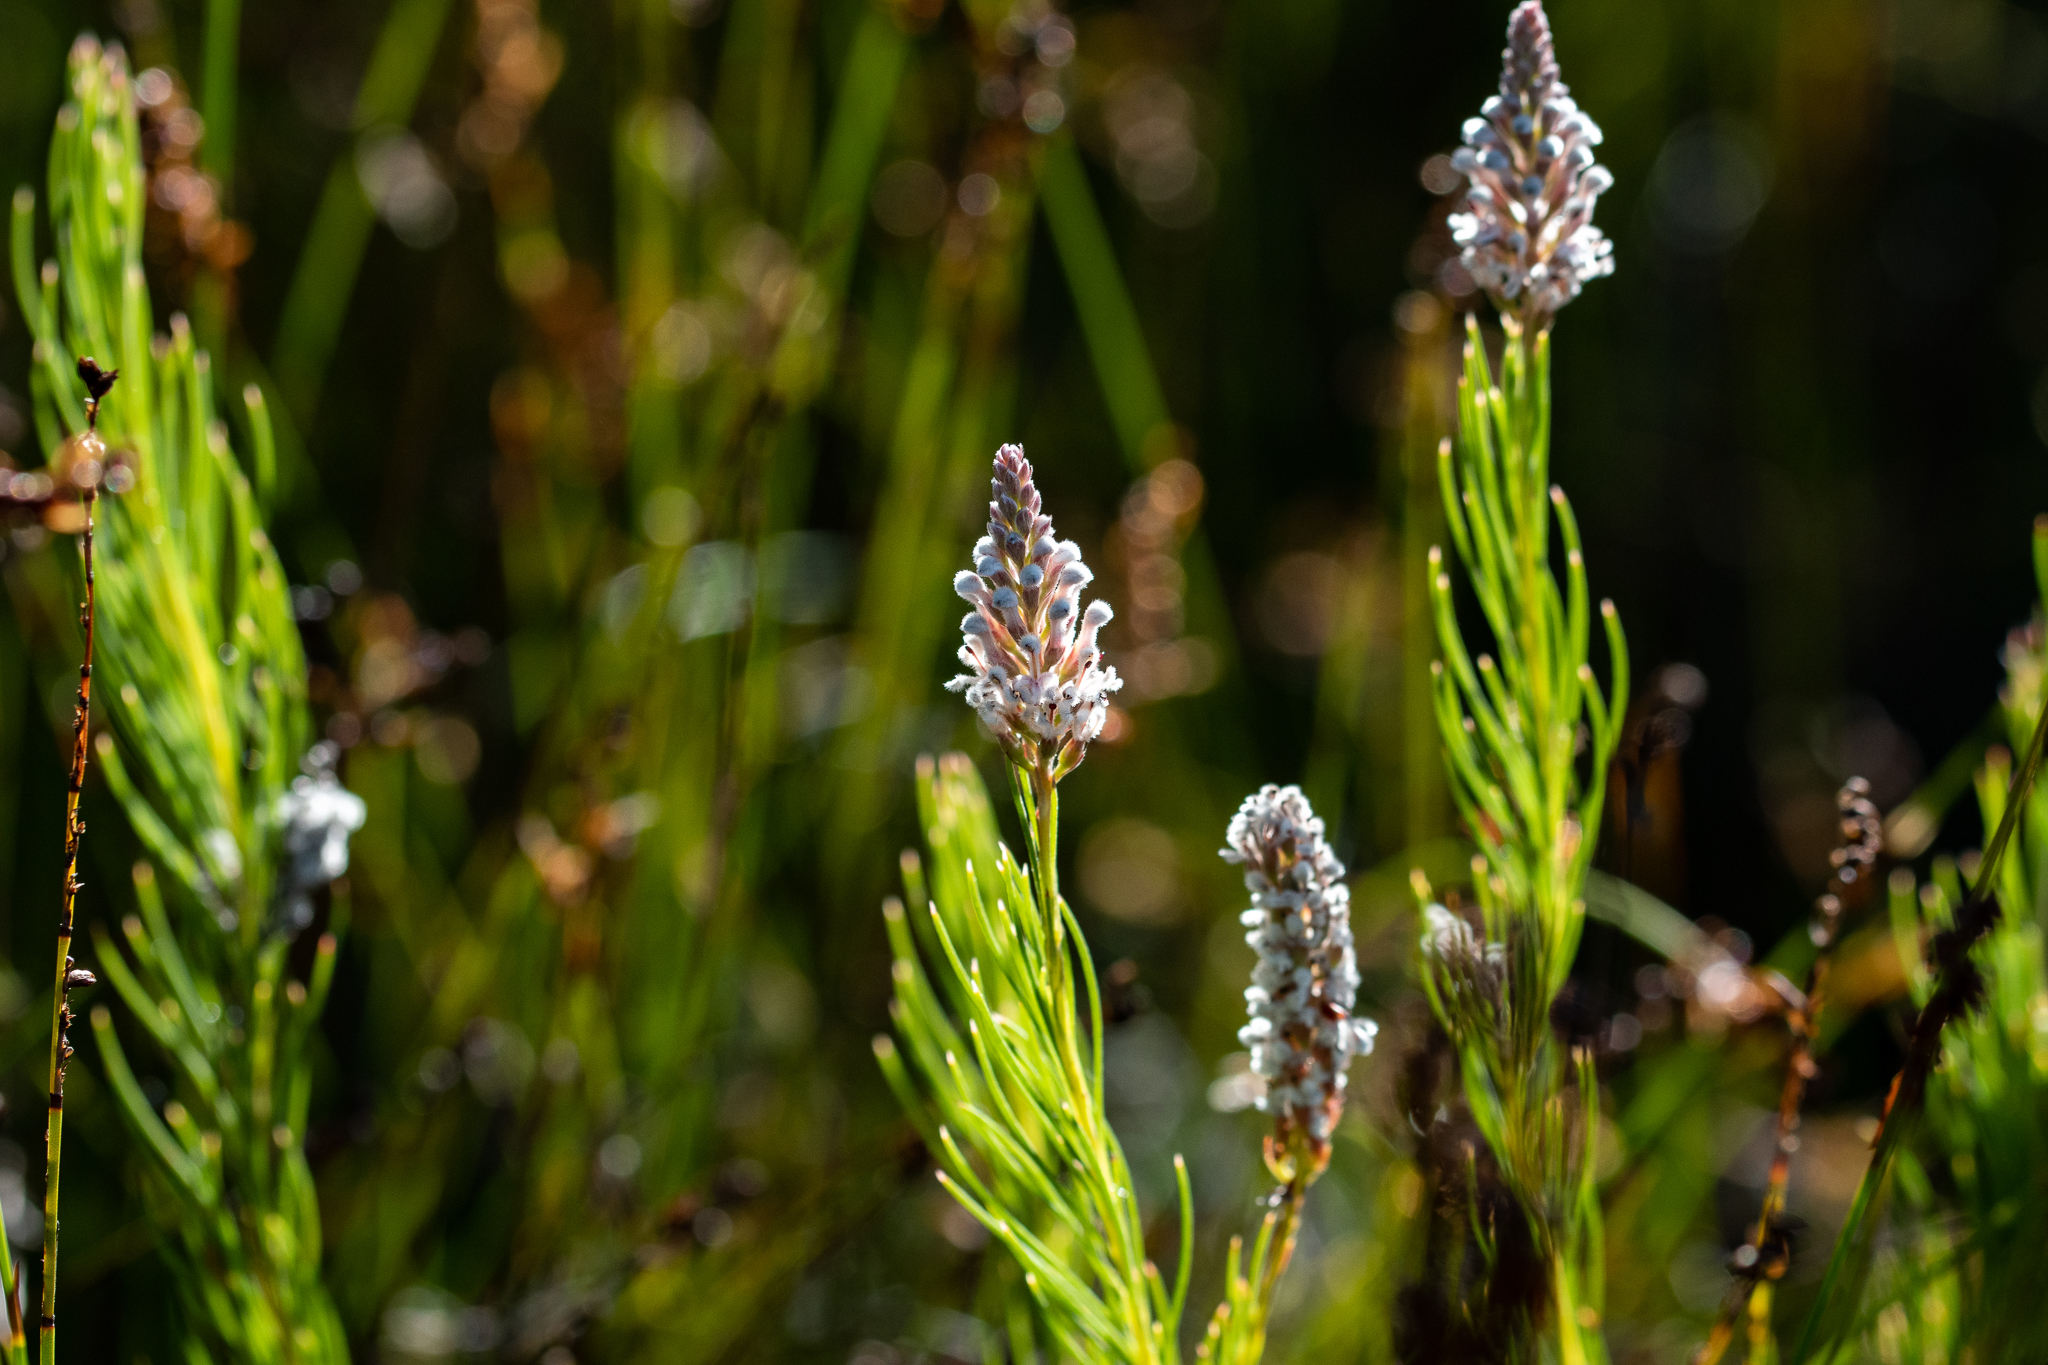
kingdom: Plantae
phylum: Tracheophyta
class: Magnoliopsida
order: Proteales
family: Proteaceae
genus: Spatalla
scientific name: Spatalla racemosa
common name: Lax-stalked spoon
